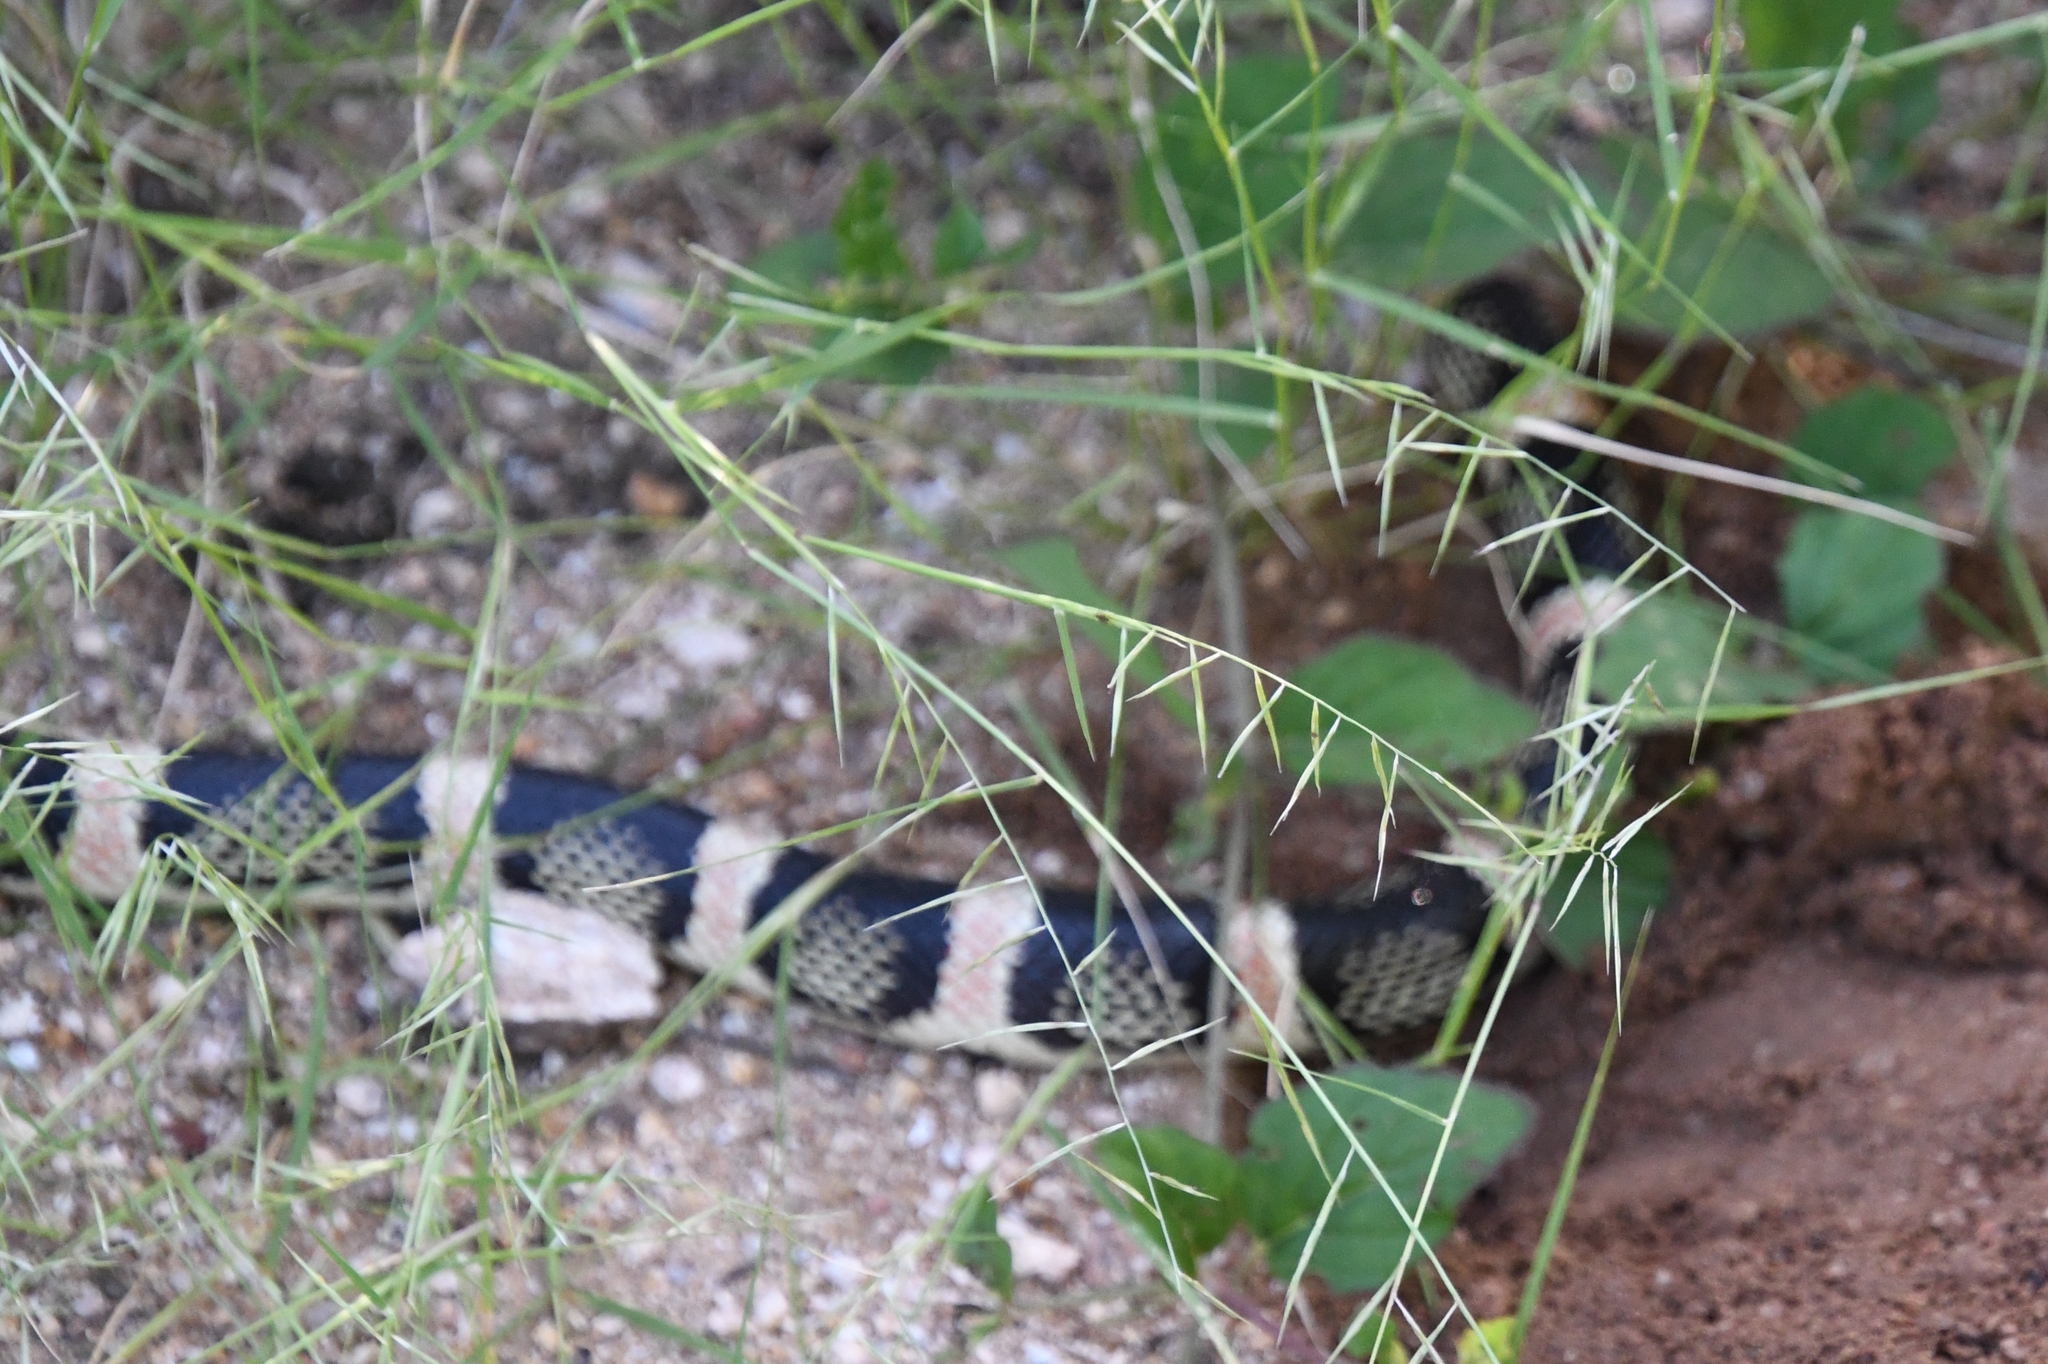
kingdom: Animalia
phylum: Chordata
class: Squamata
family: Colubridae
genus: Rhinocheilus
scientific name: Rhinocheilus lecontei
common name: Longnose snake
